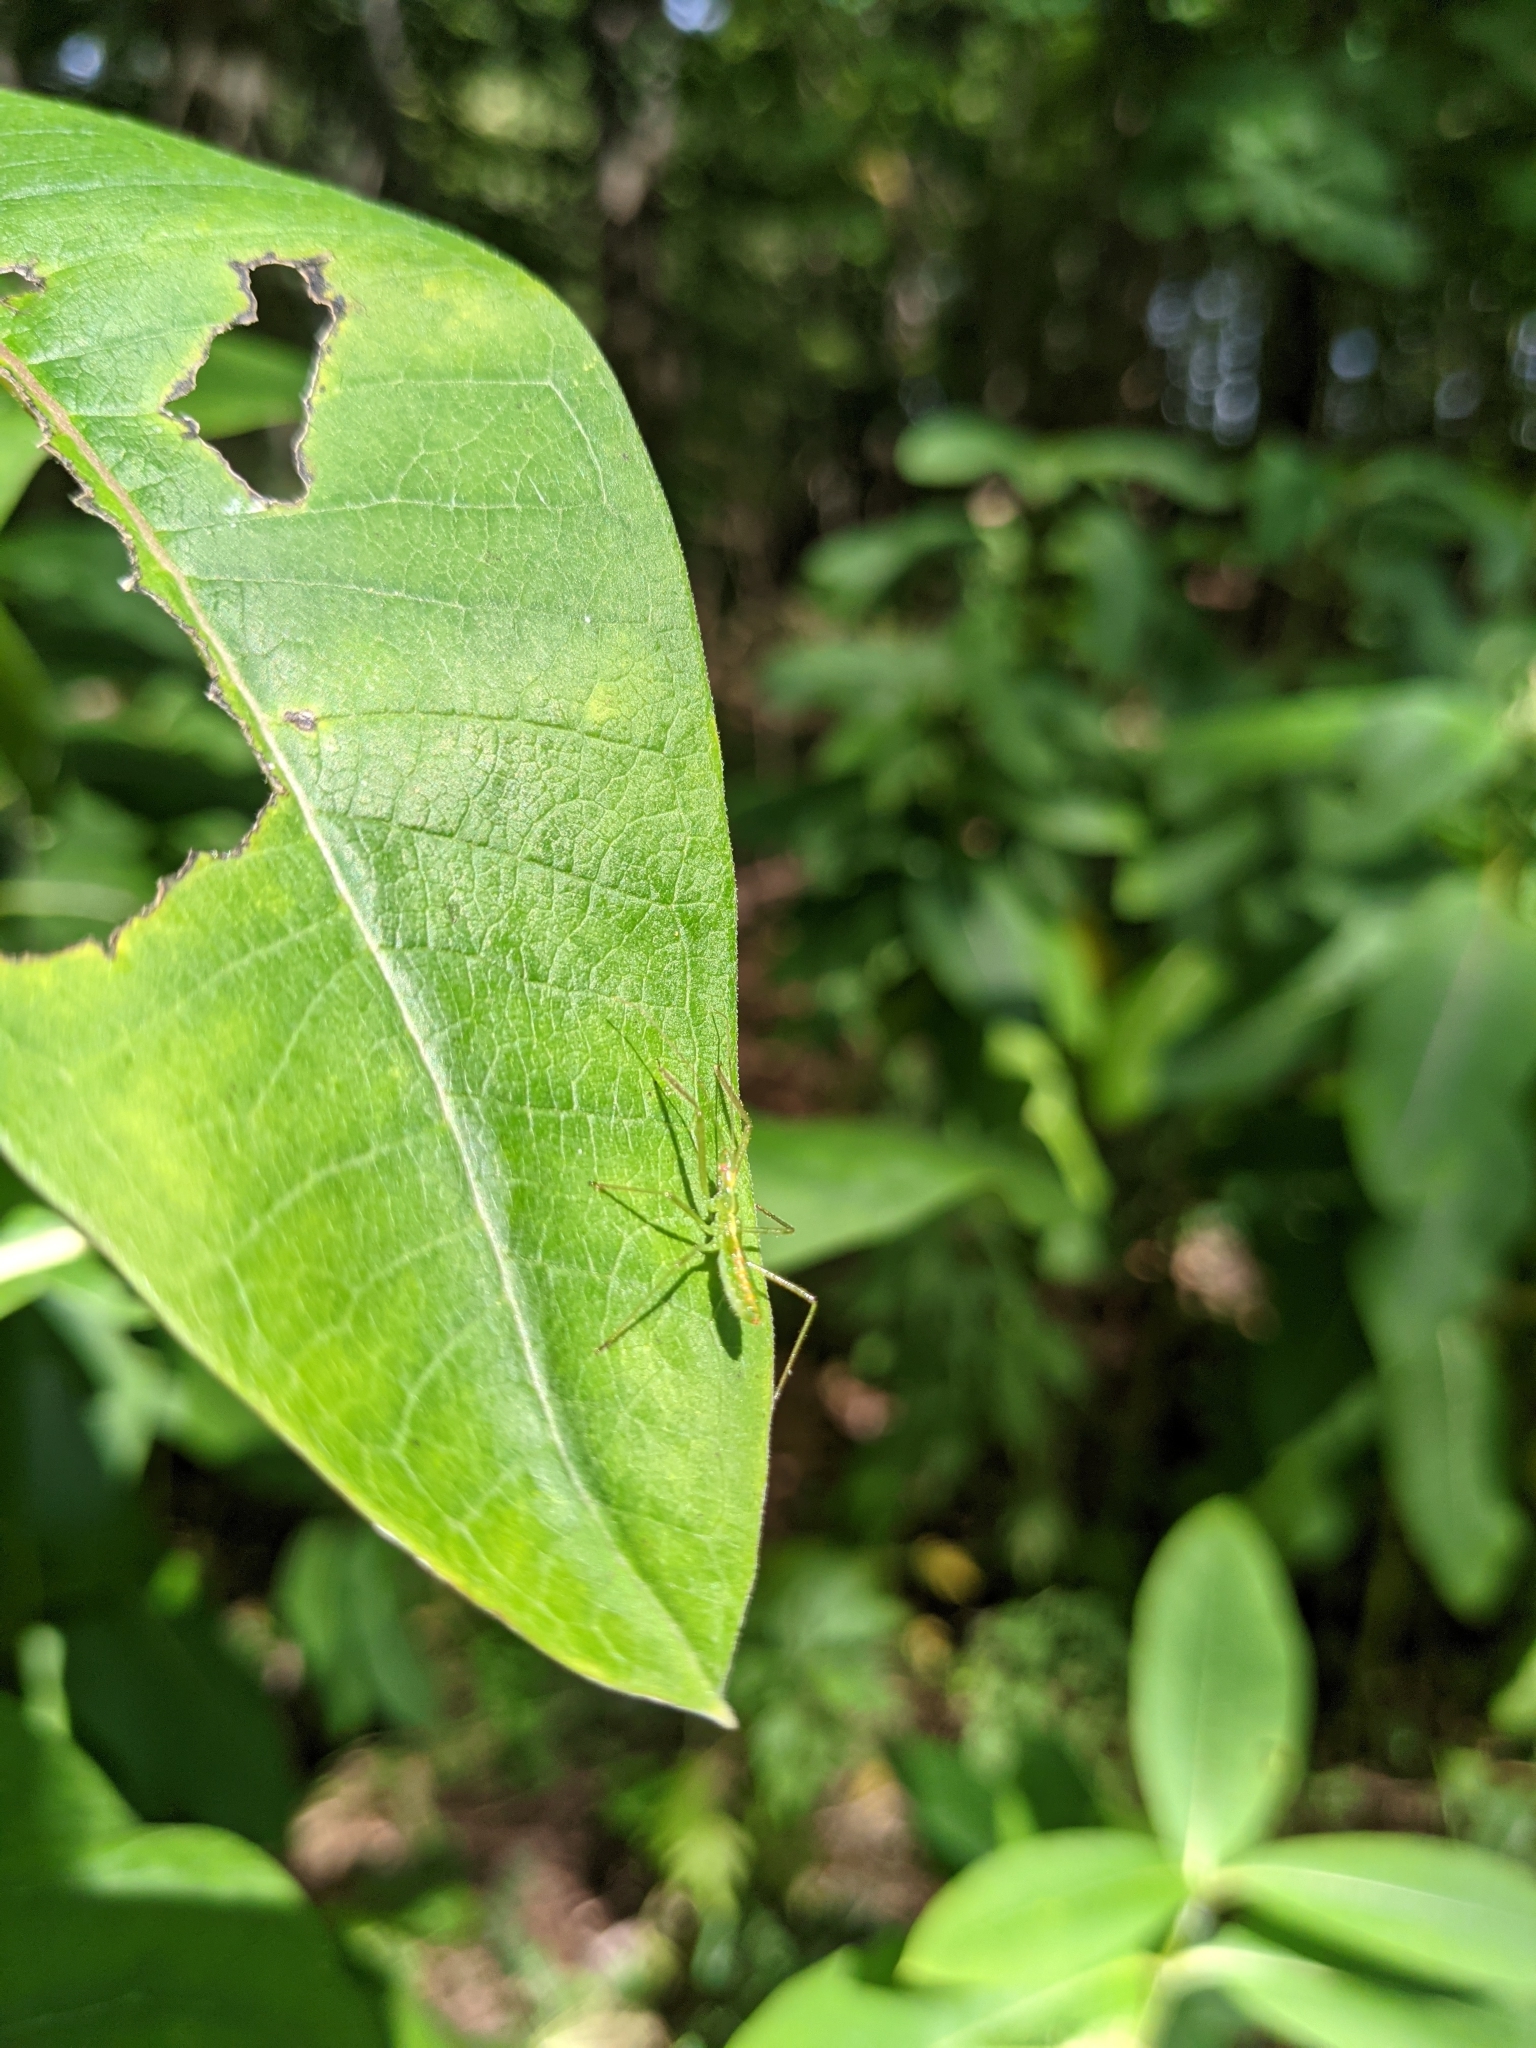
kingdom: Animalia
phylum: Arthropoda
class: Insecta
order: Hemiptera
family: Reduviidae
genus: Zelus
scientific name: Zelus luridus
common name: Pale green assassin bug
